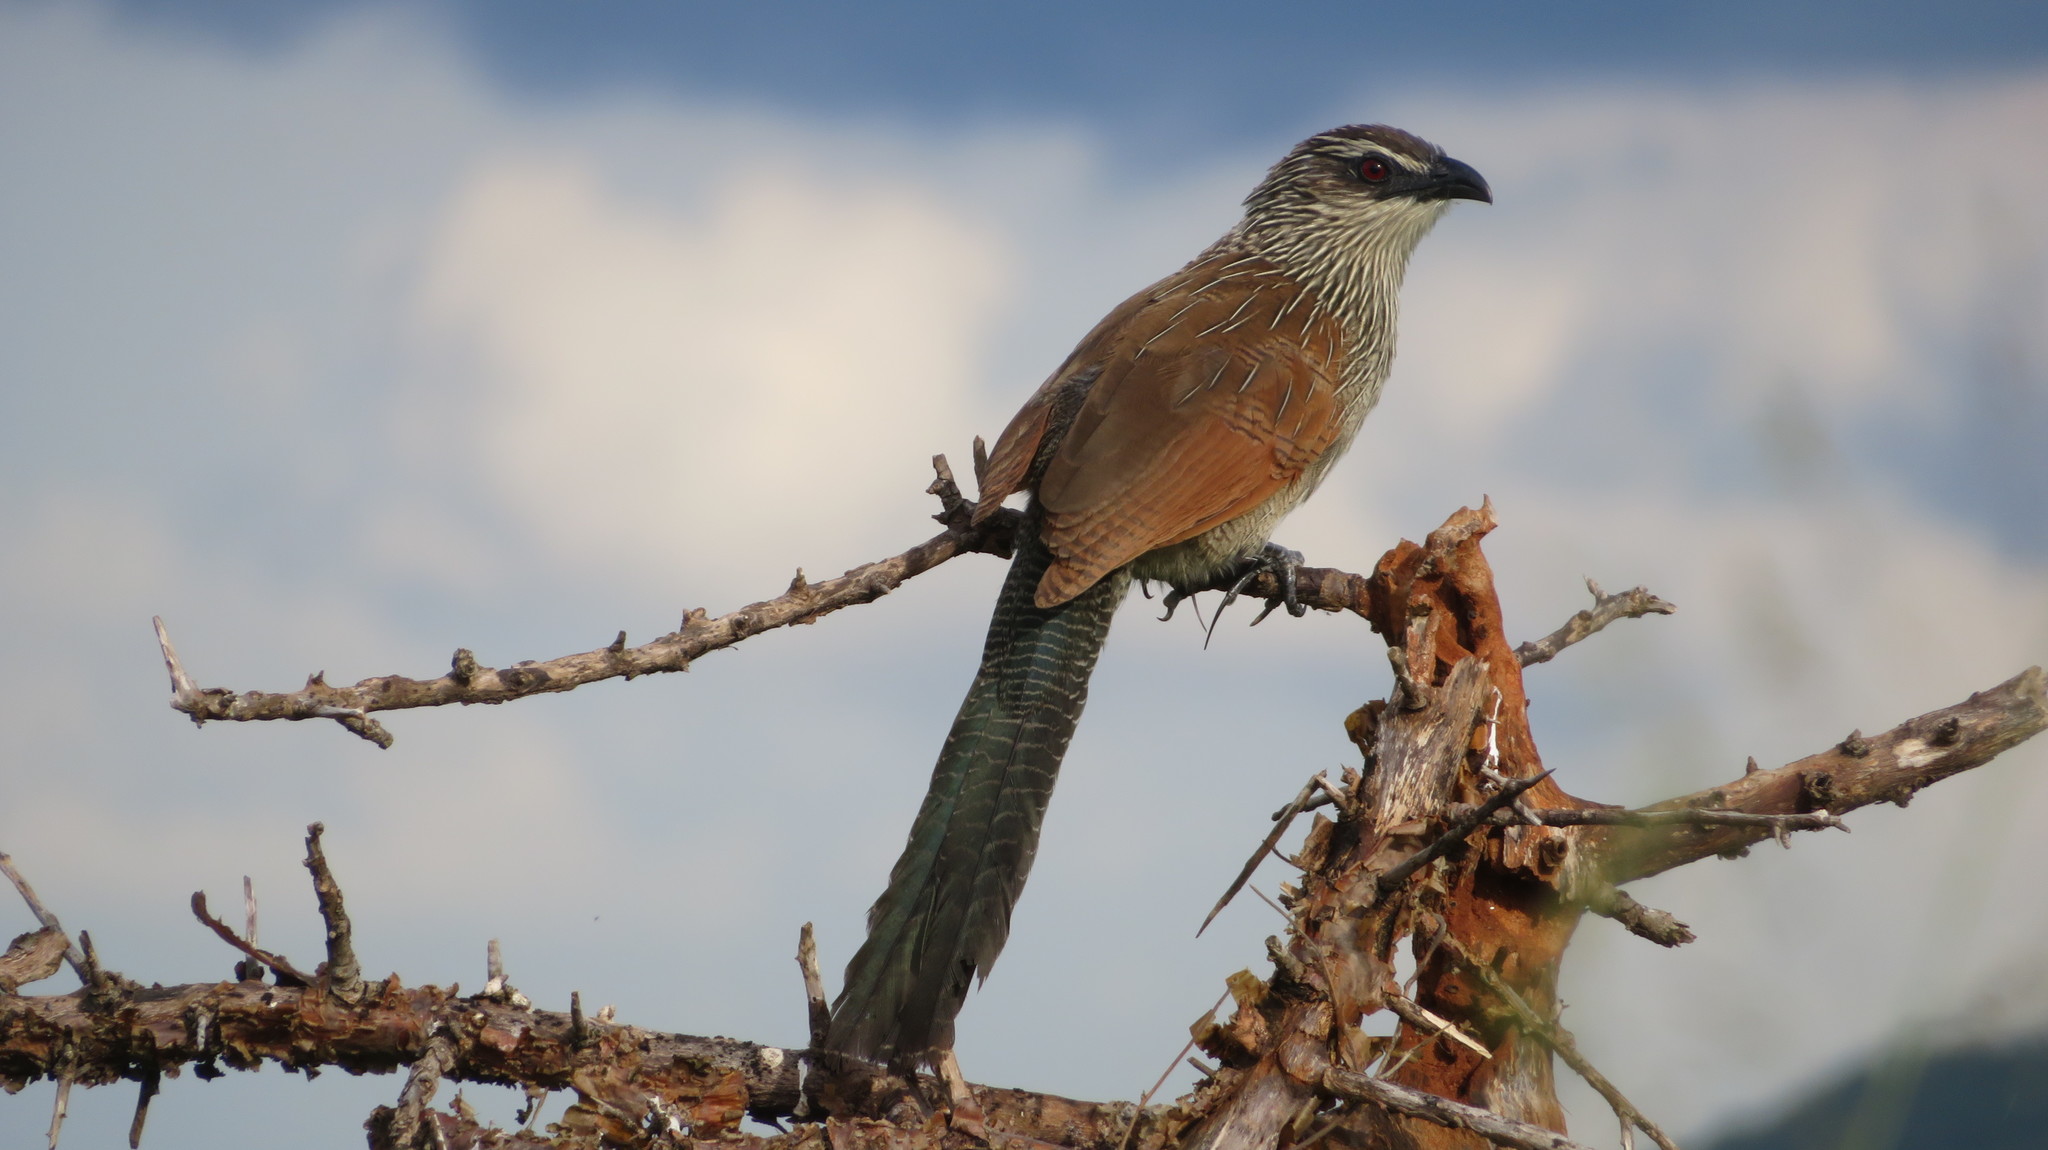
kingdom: Animalia
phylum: Chordata
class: Aves
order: Cuculiformes
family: Cuculidae
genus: Centropus
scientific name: Centropus superciliosus
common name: White-browed coucal
